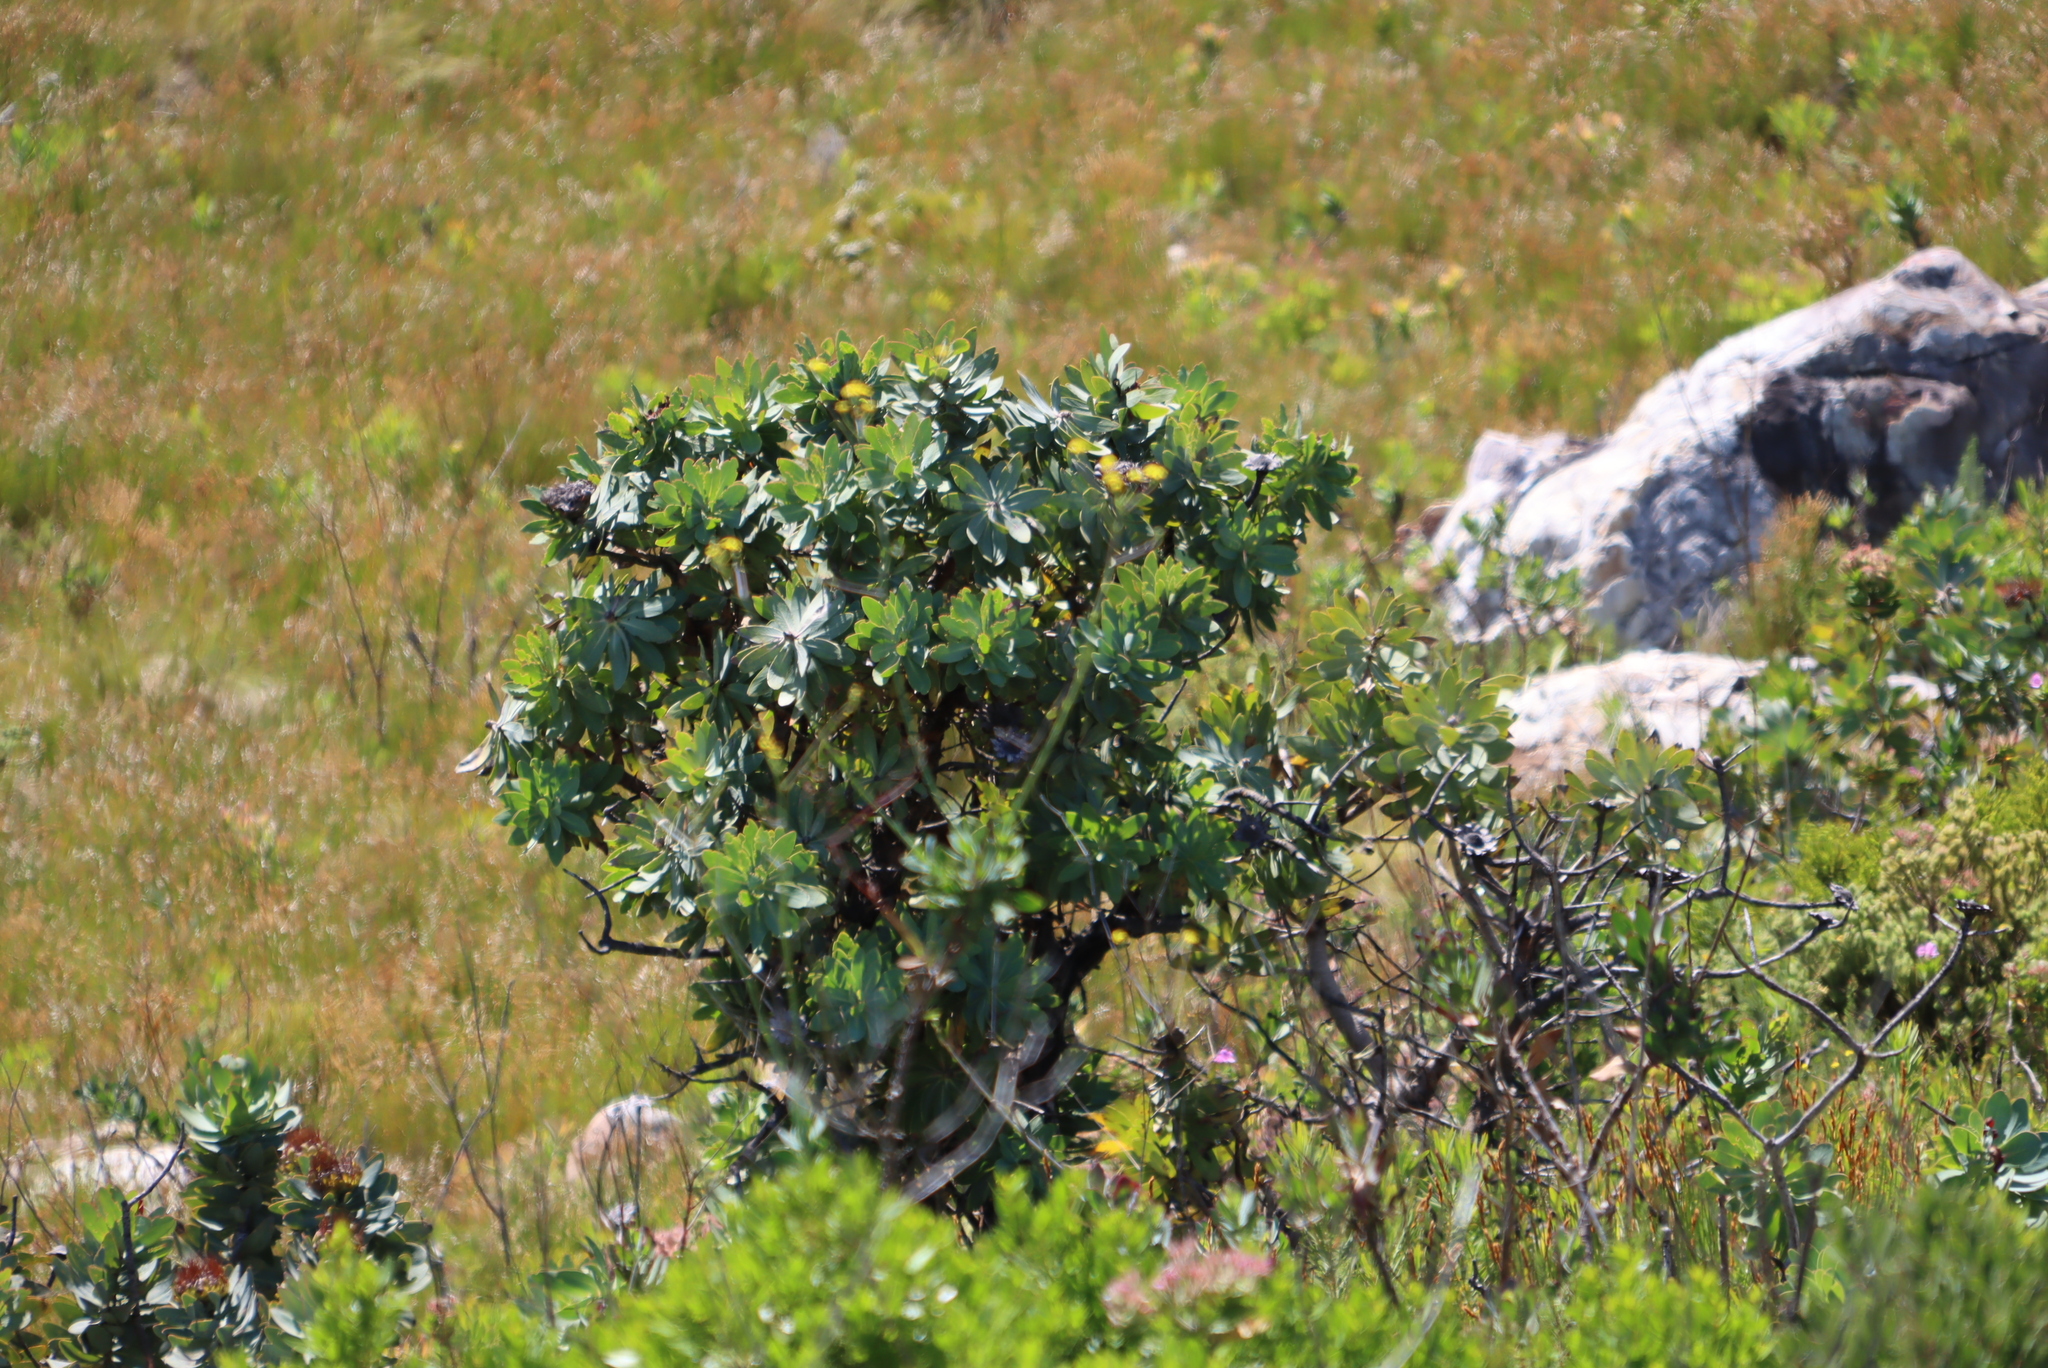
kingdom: Plantae
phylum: Tracheophyta
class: Magnoliopsida
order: Proteales
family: Proteaceae
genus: Protea
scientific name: Protea nitida
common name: Tree protea
